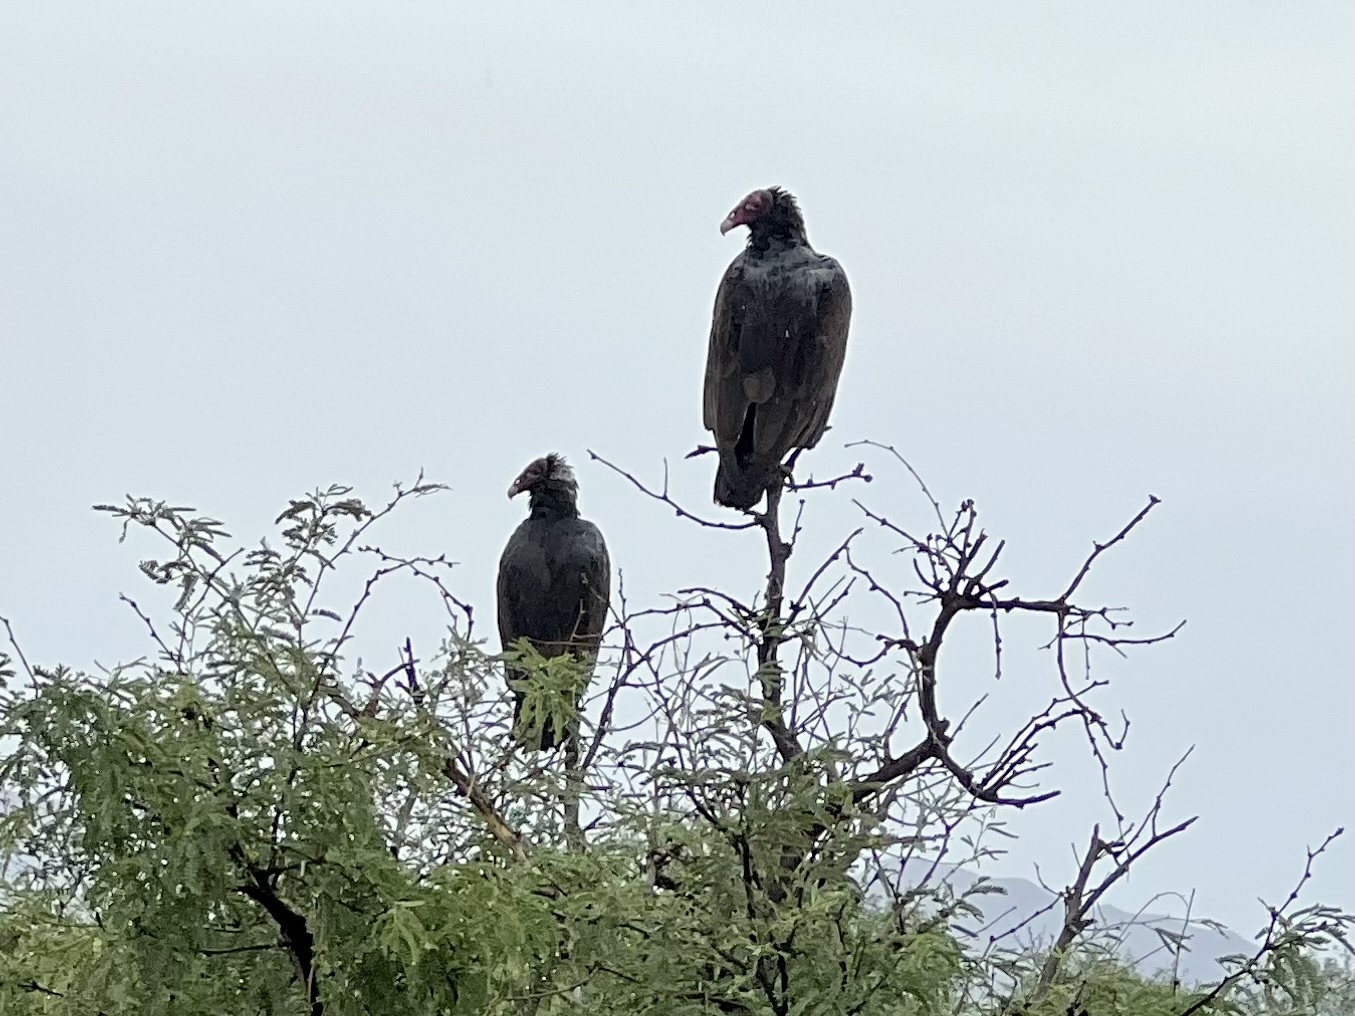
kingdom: Animalia
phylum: Chordata
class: Aves
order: Accipitriformes
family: Cathartidae
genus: Cathartes
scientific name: Cathartes aura
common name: Turkey vulture
